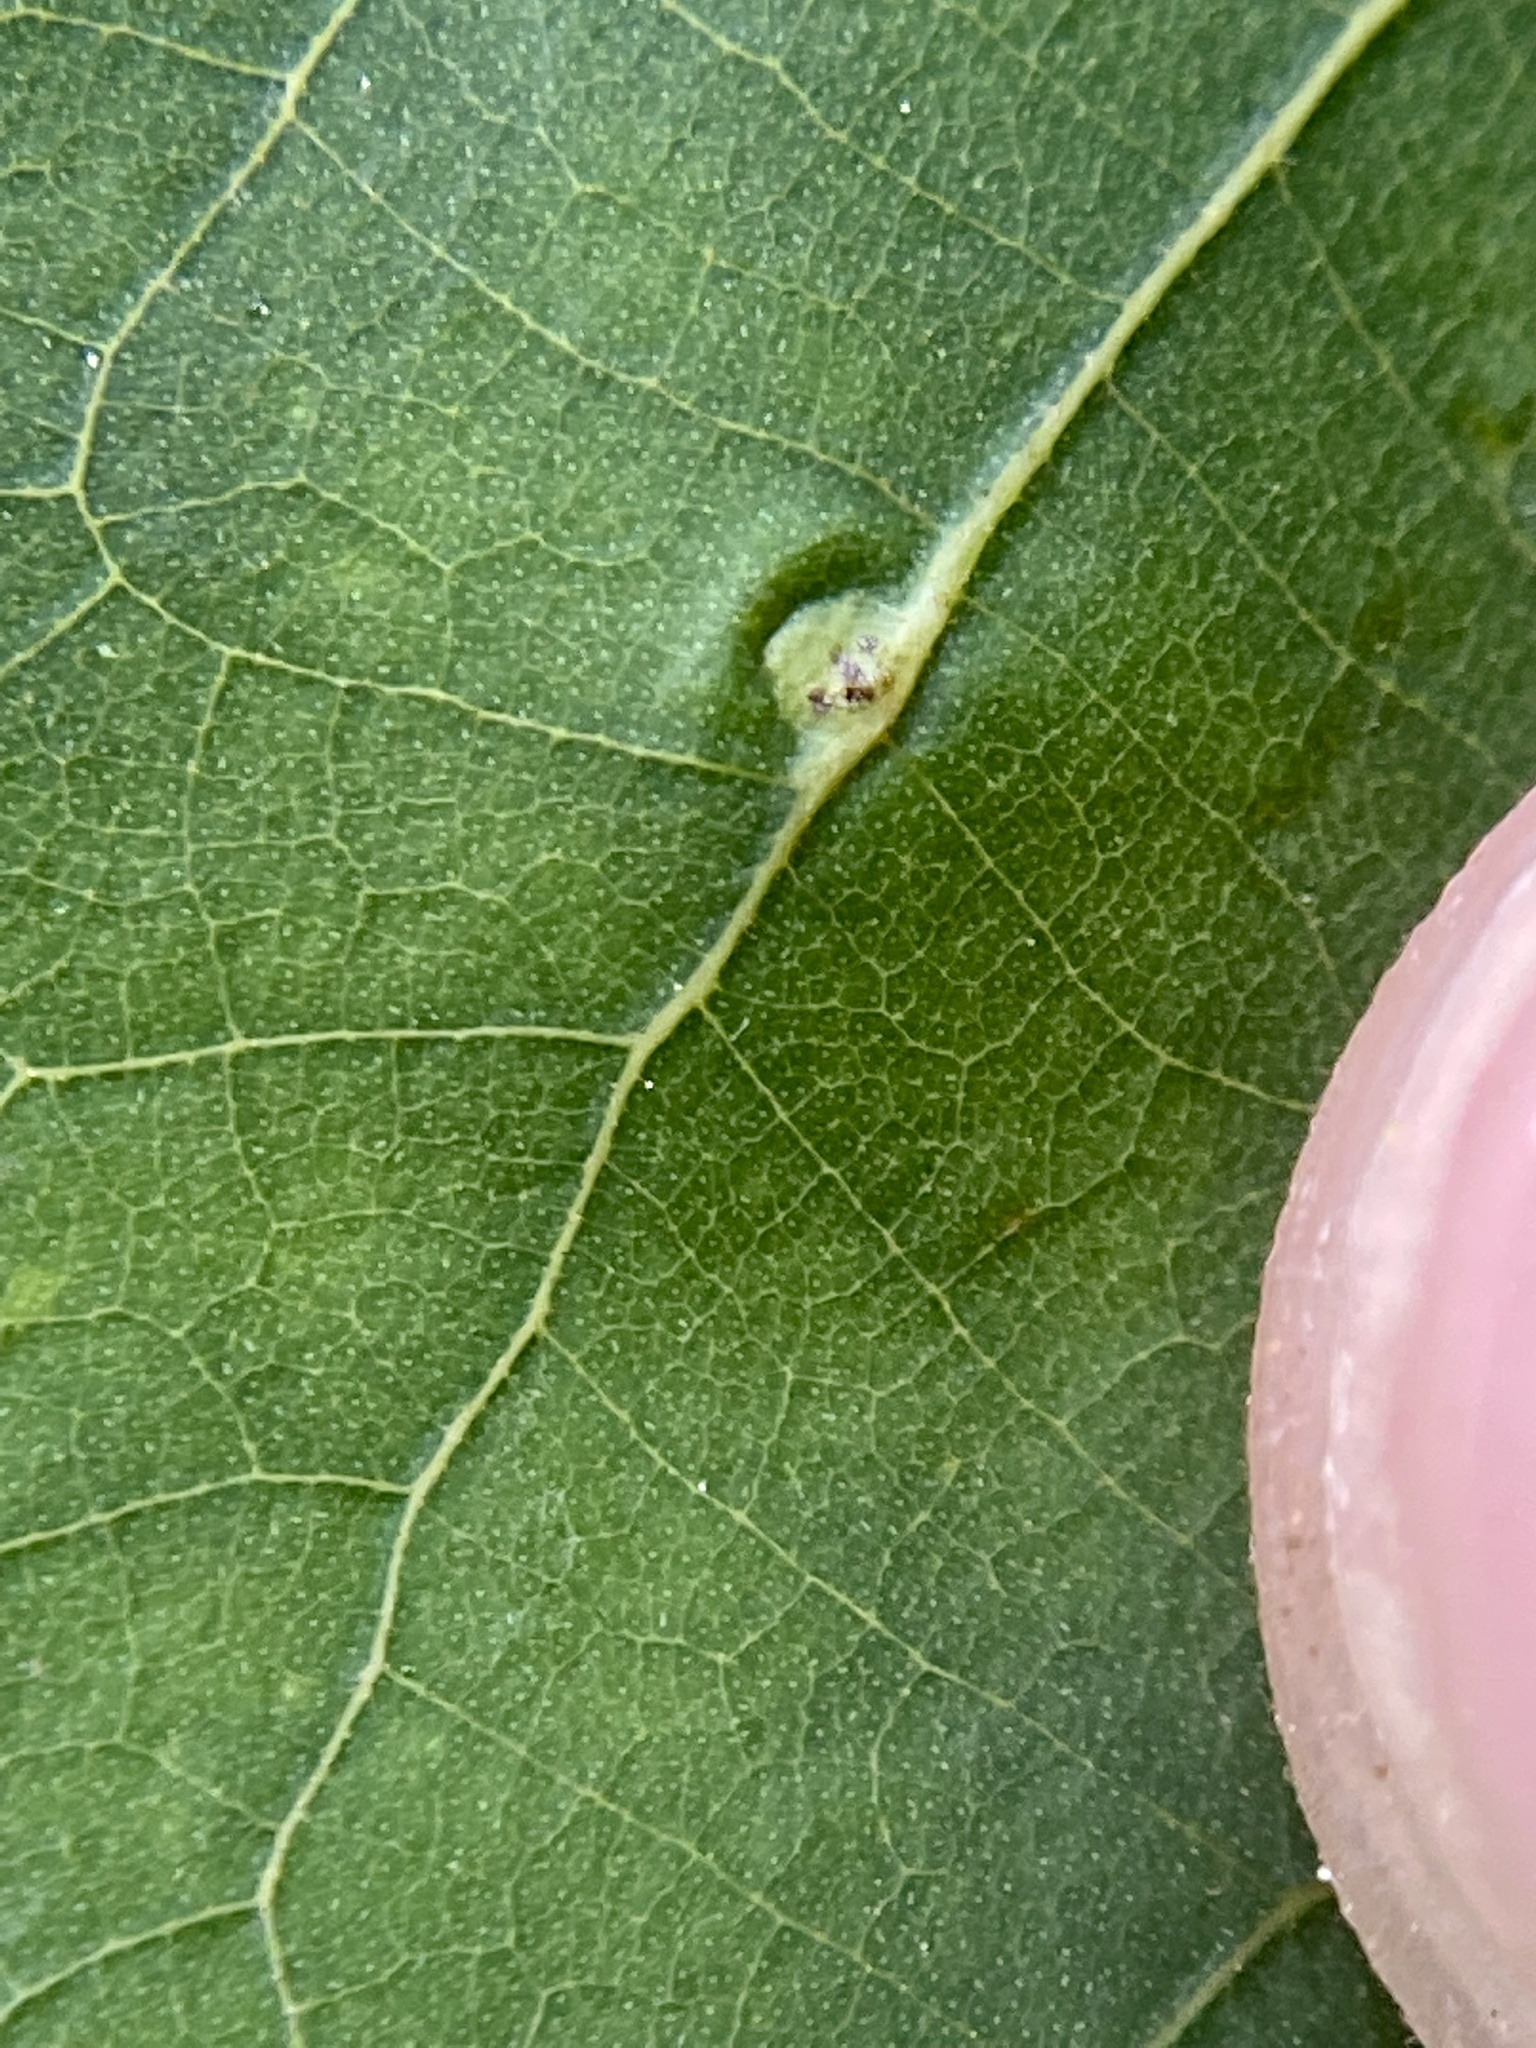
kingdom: Animalia
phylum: Arthropoda
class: Insecta
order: Diptera
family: Cecidomyiidae
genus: Caryomyia
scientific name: Caryomyia caryaecola
